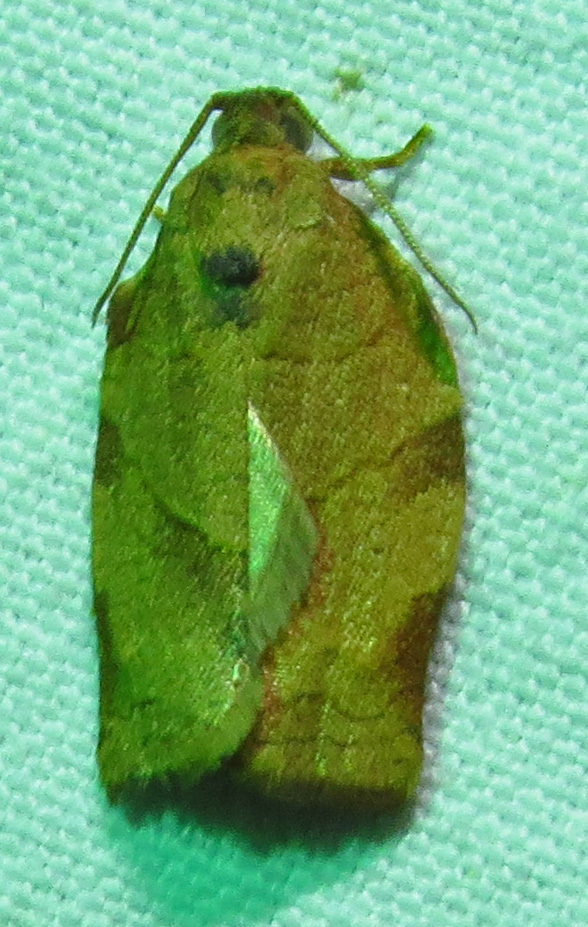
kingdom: Animalia
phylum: Arthropoda
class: Insecta
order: Lepidoptera
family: Tortricidae
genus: Choristoneura
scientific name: Choristoneura rosaceana
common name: Oblique-banded leafroller moth
